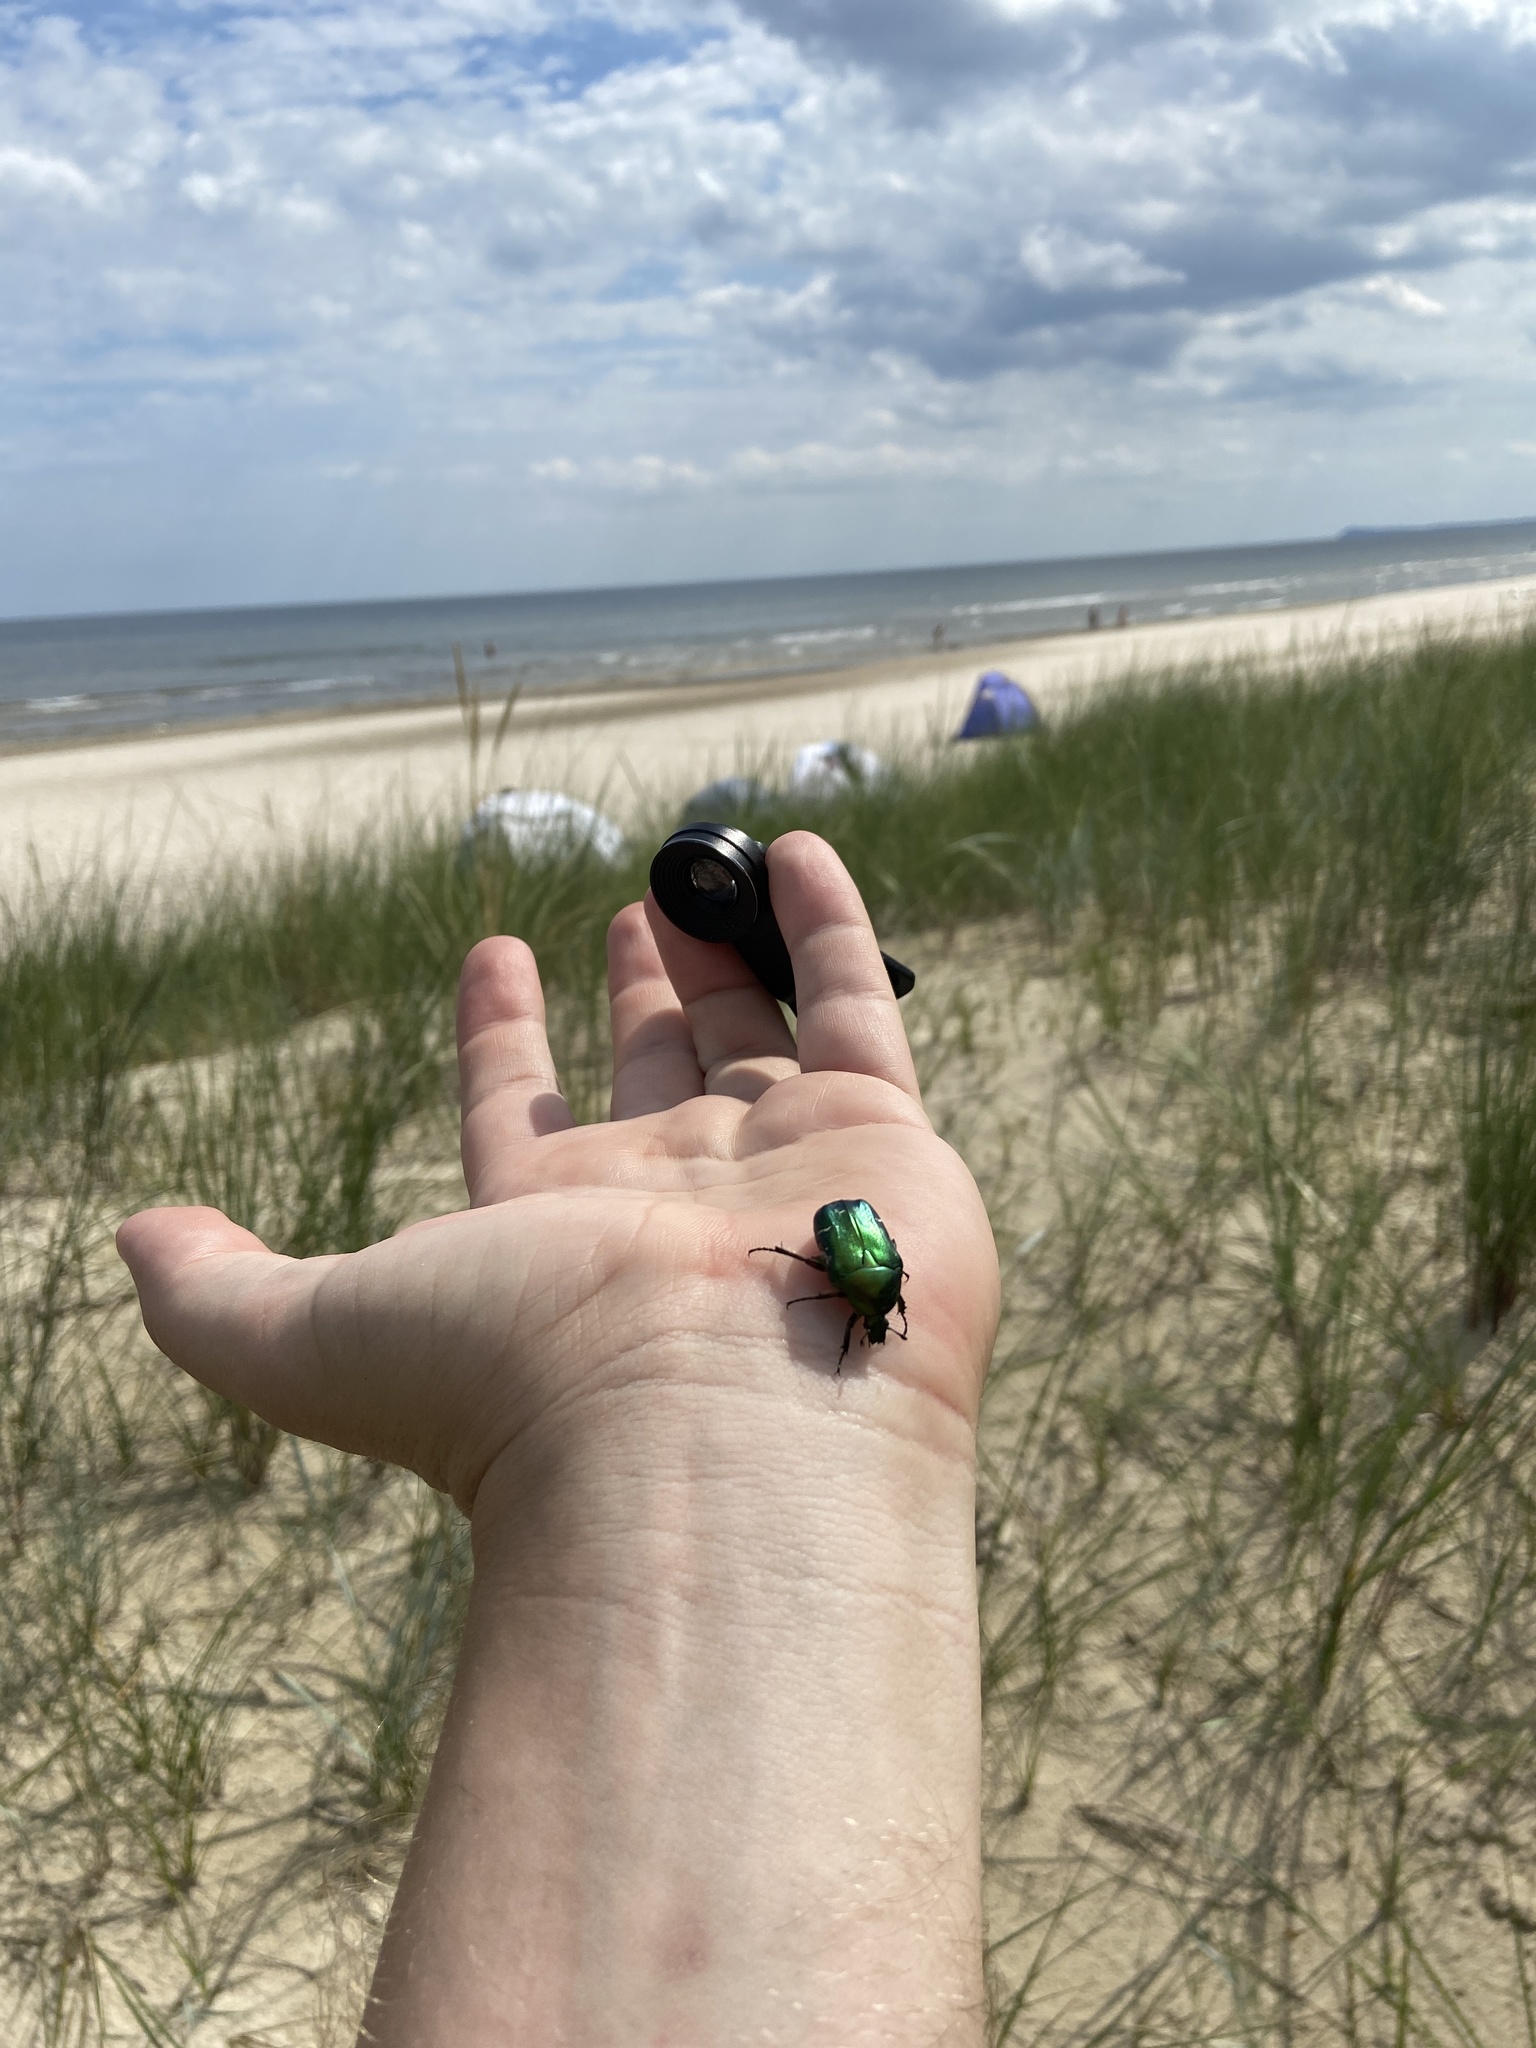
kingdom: Animalia
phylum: Arthropoda
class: Insecta
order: Coleoptera
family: Scarabaeidae
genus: Cetonia
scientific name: Cetonia aurata
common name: Rose chafer
